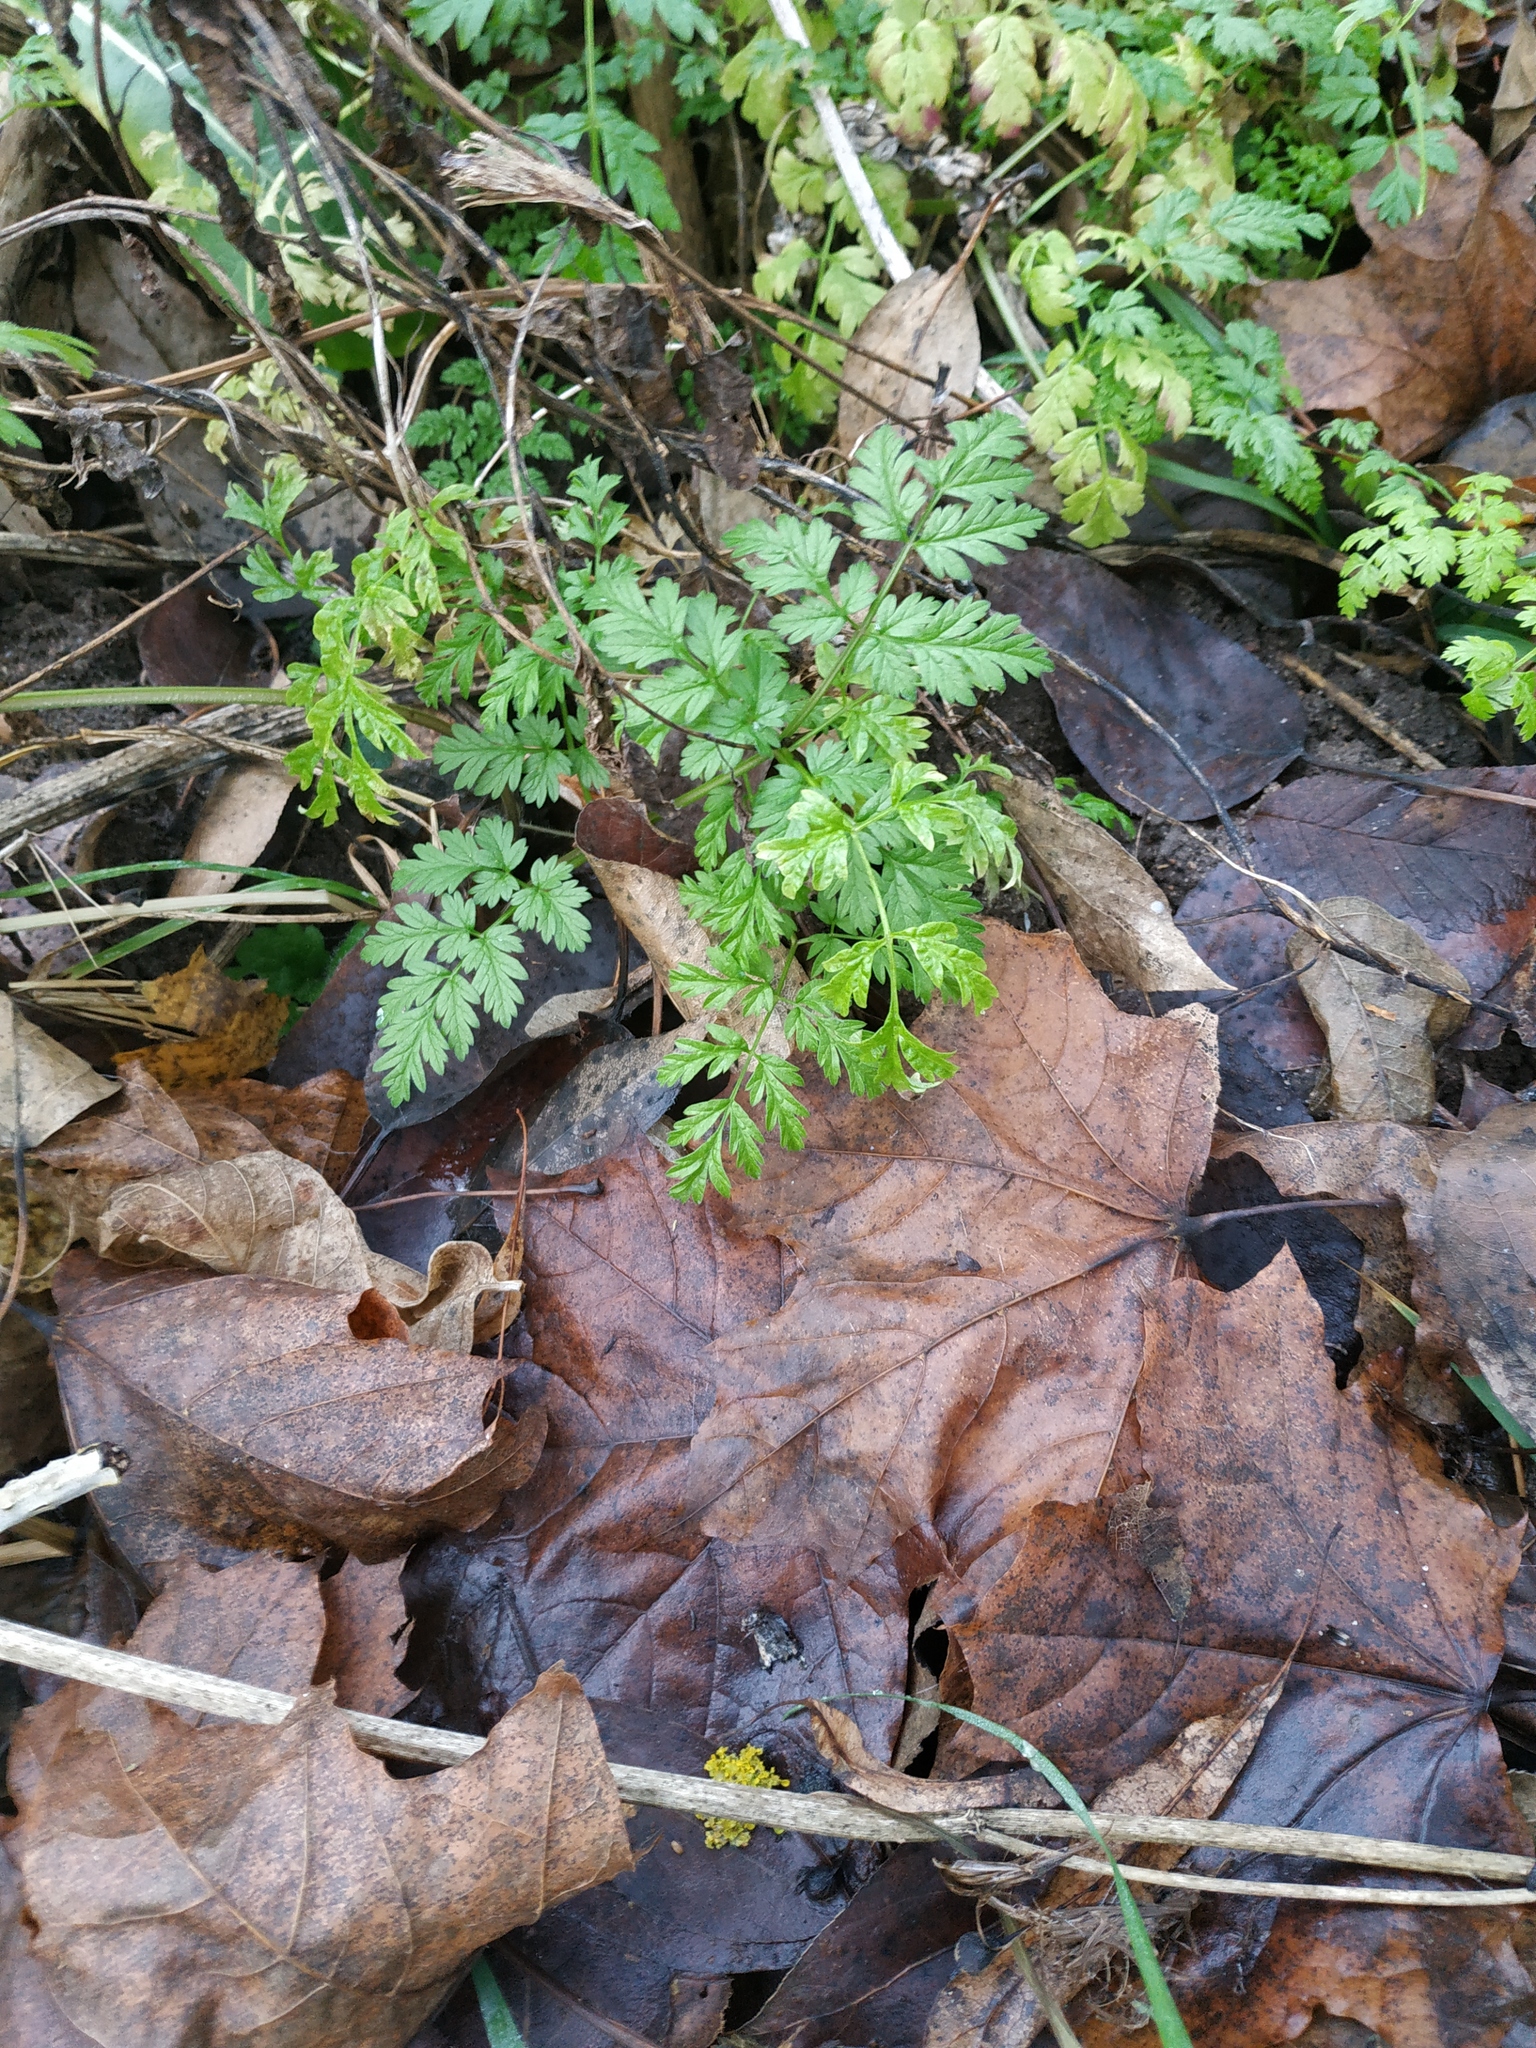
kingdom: Plantae
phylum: Tracheophyta
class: Magnoliopsida
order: Apiales
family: Apiaceae
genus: Anthriscus
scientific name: Anthriscus sylvestris
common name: Cow parsley
